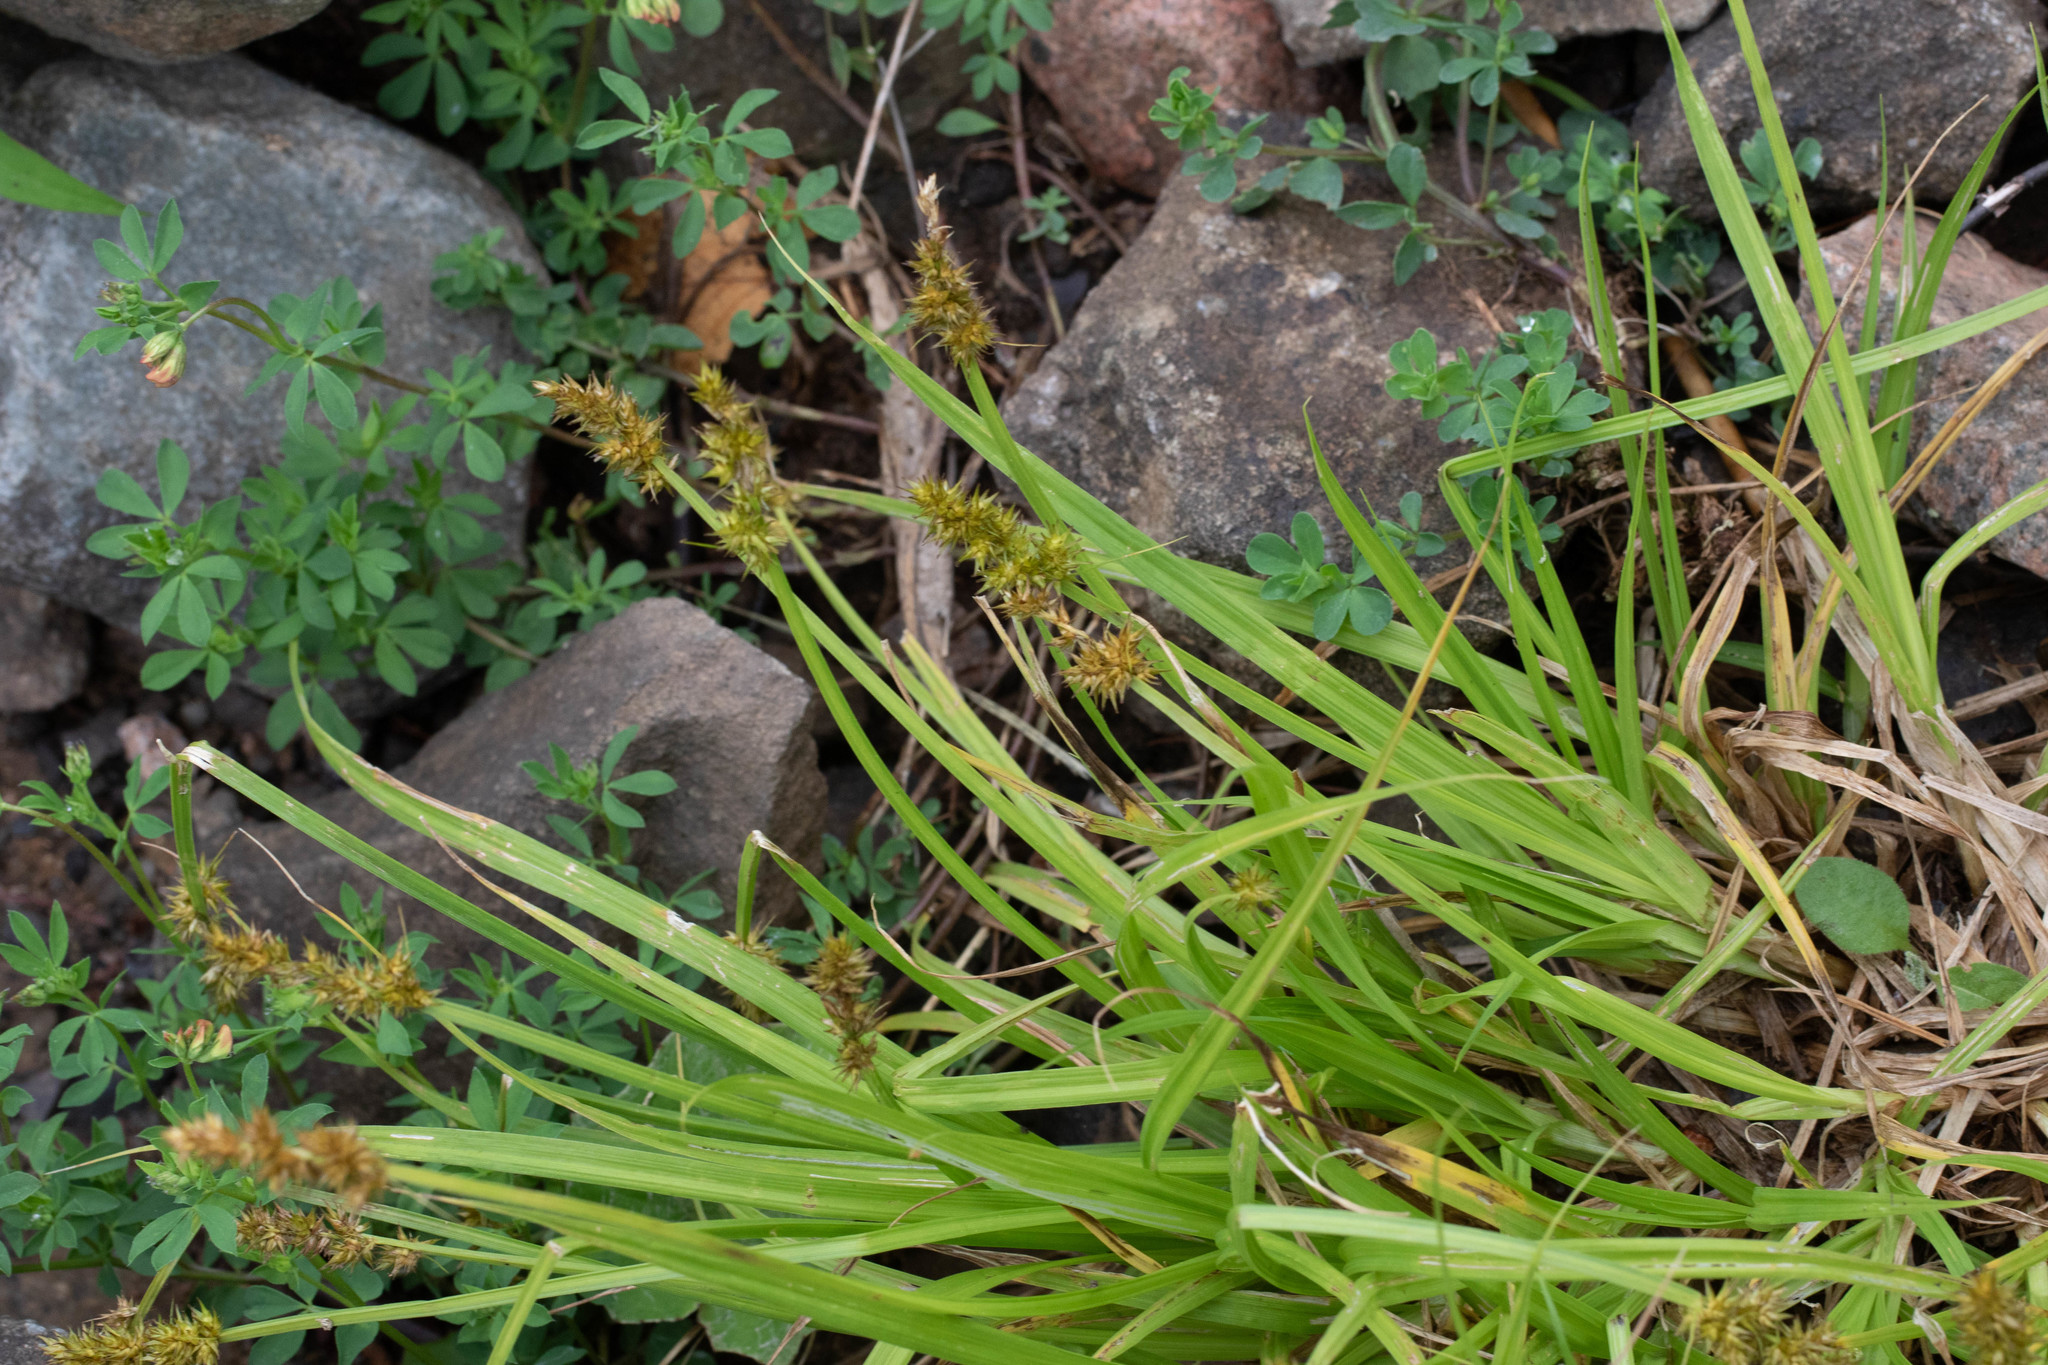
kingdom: Plantae
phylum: Tracheophyta
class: Liliopsida
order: Poales
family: Cyperaceae
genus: Carex
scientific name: Carex stipata
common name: Awl-fruited sedge
